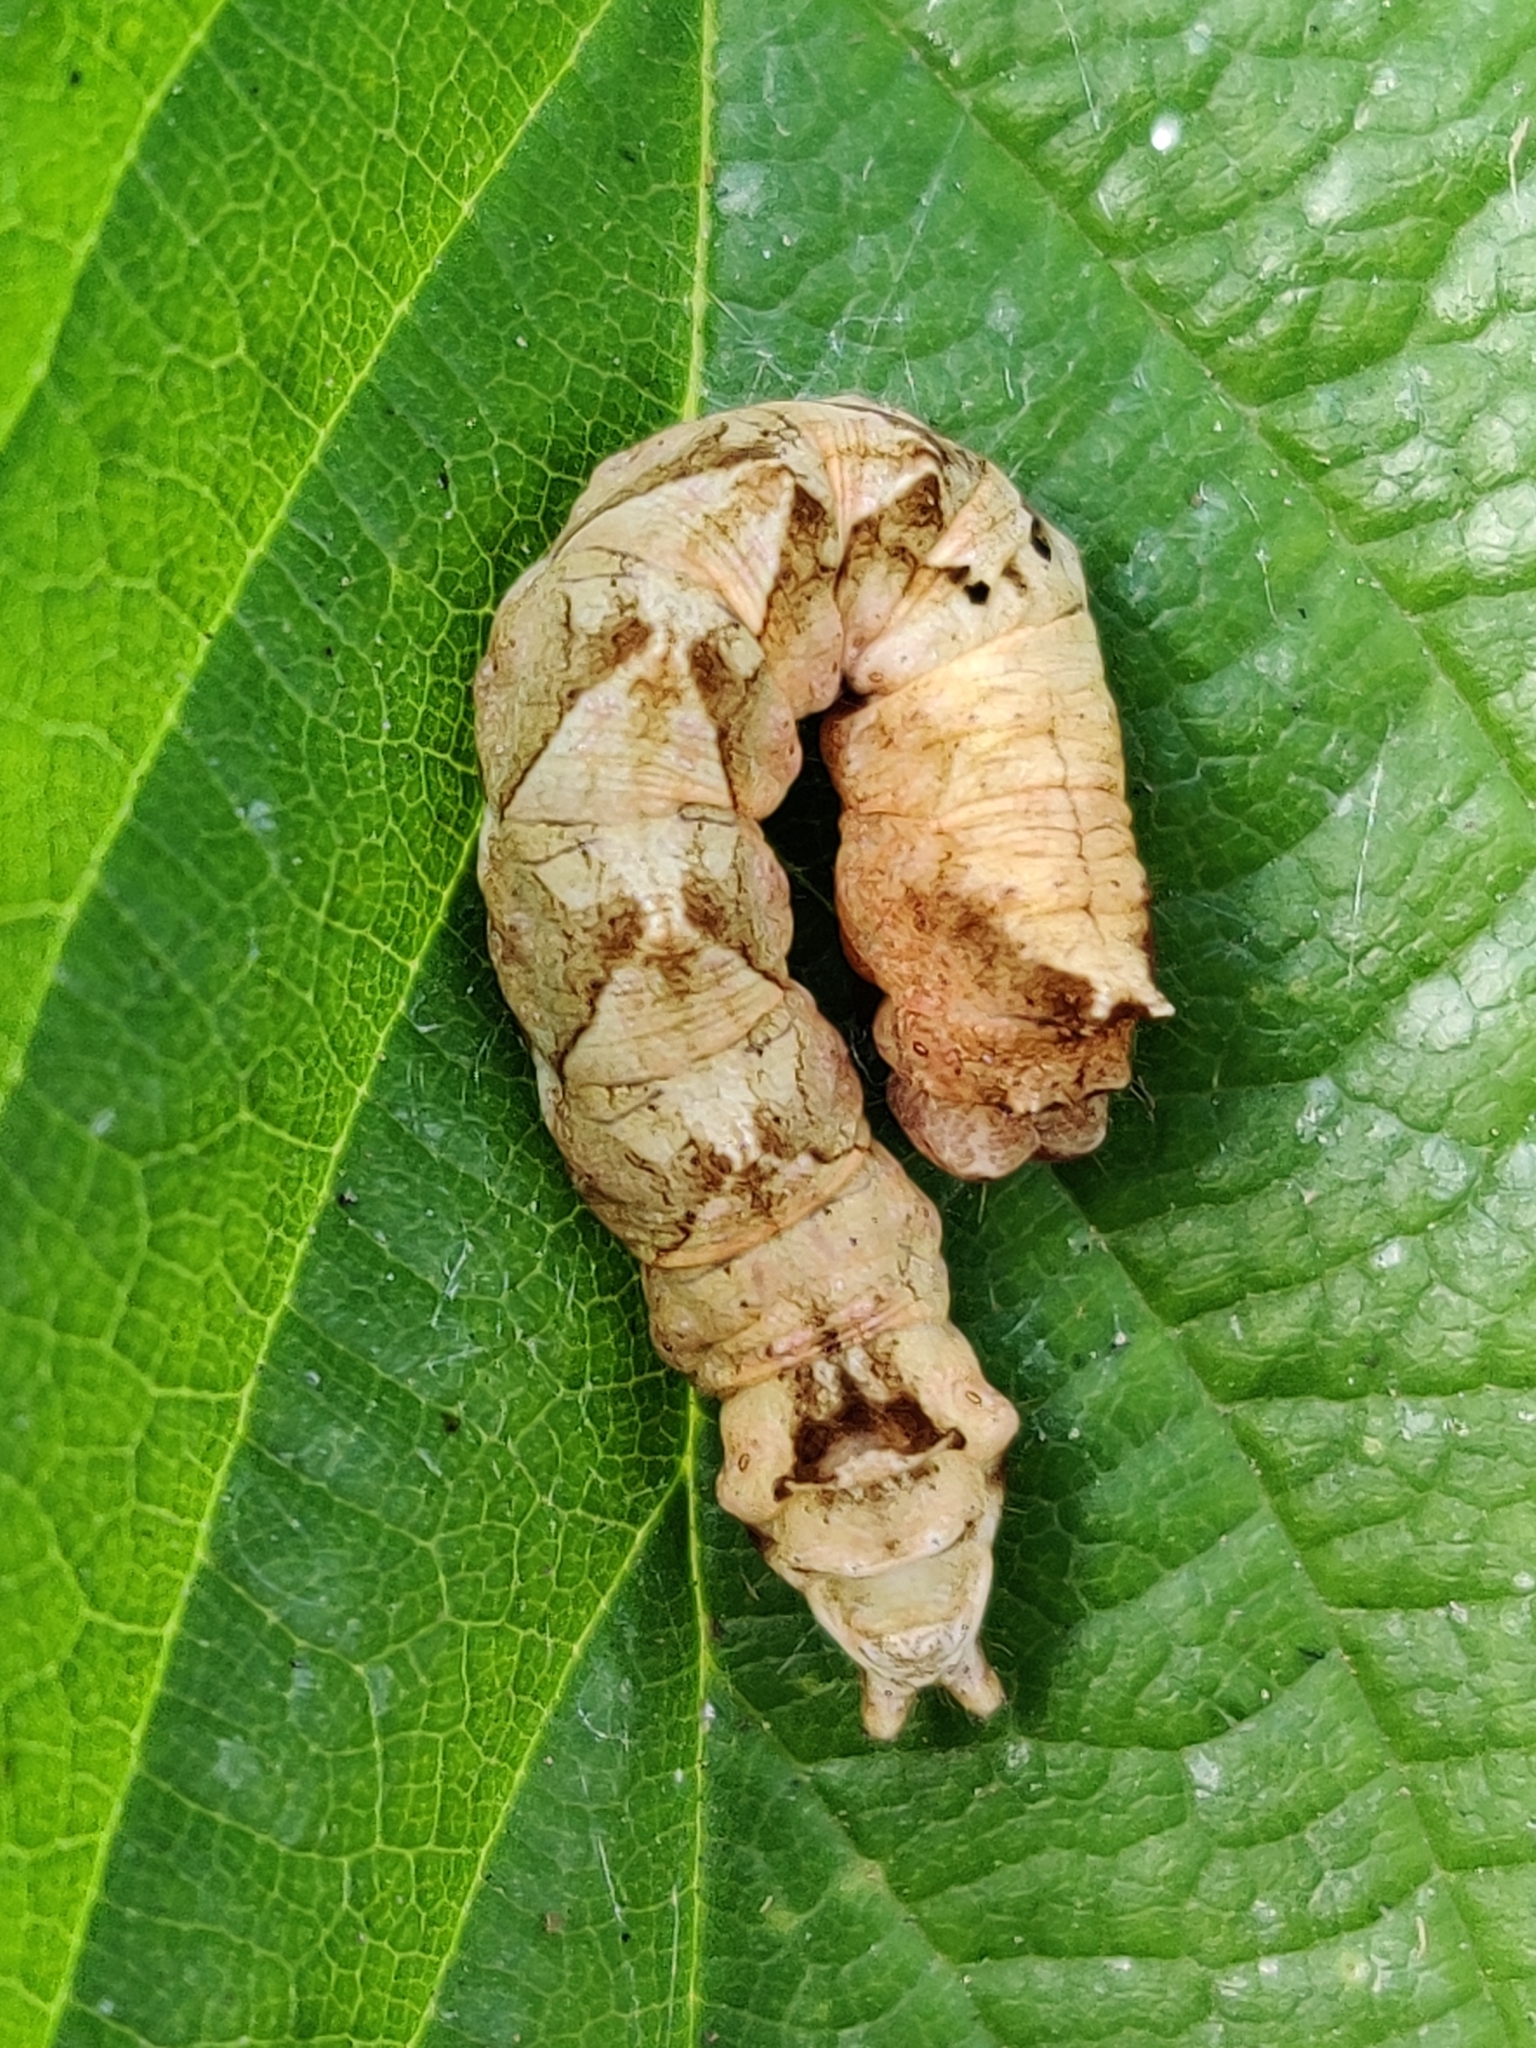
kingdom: Animalia
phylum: Arthropoda
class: Insecta
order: Lepidoptera
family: Drepanidae
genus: Thyatira
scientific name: Thyatira batis
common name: Peach blossom
